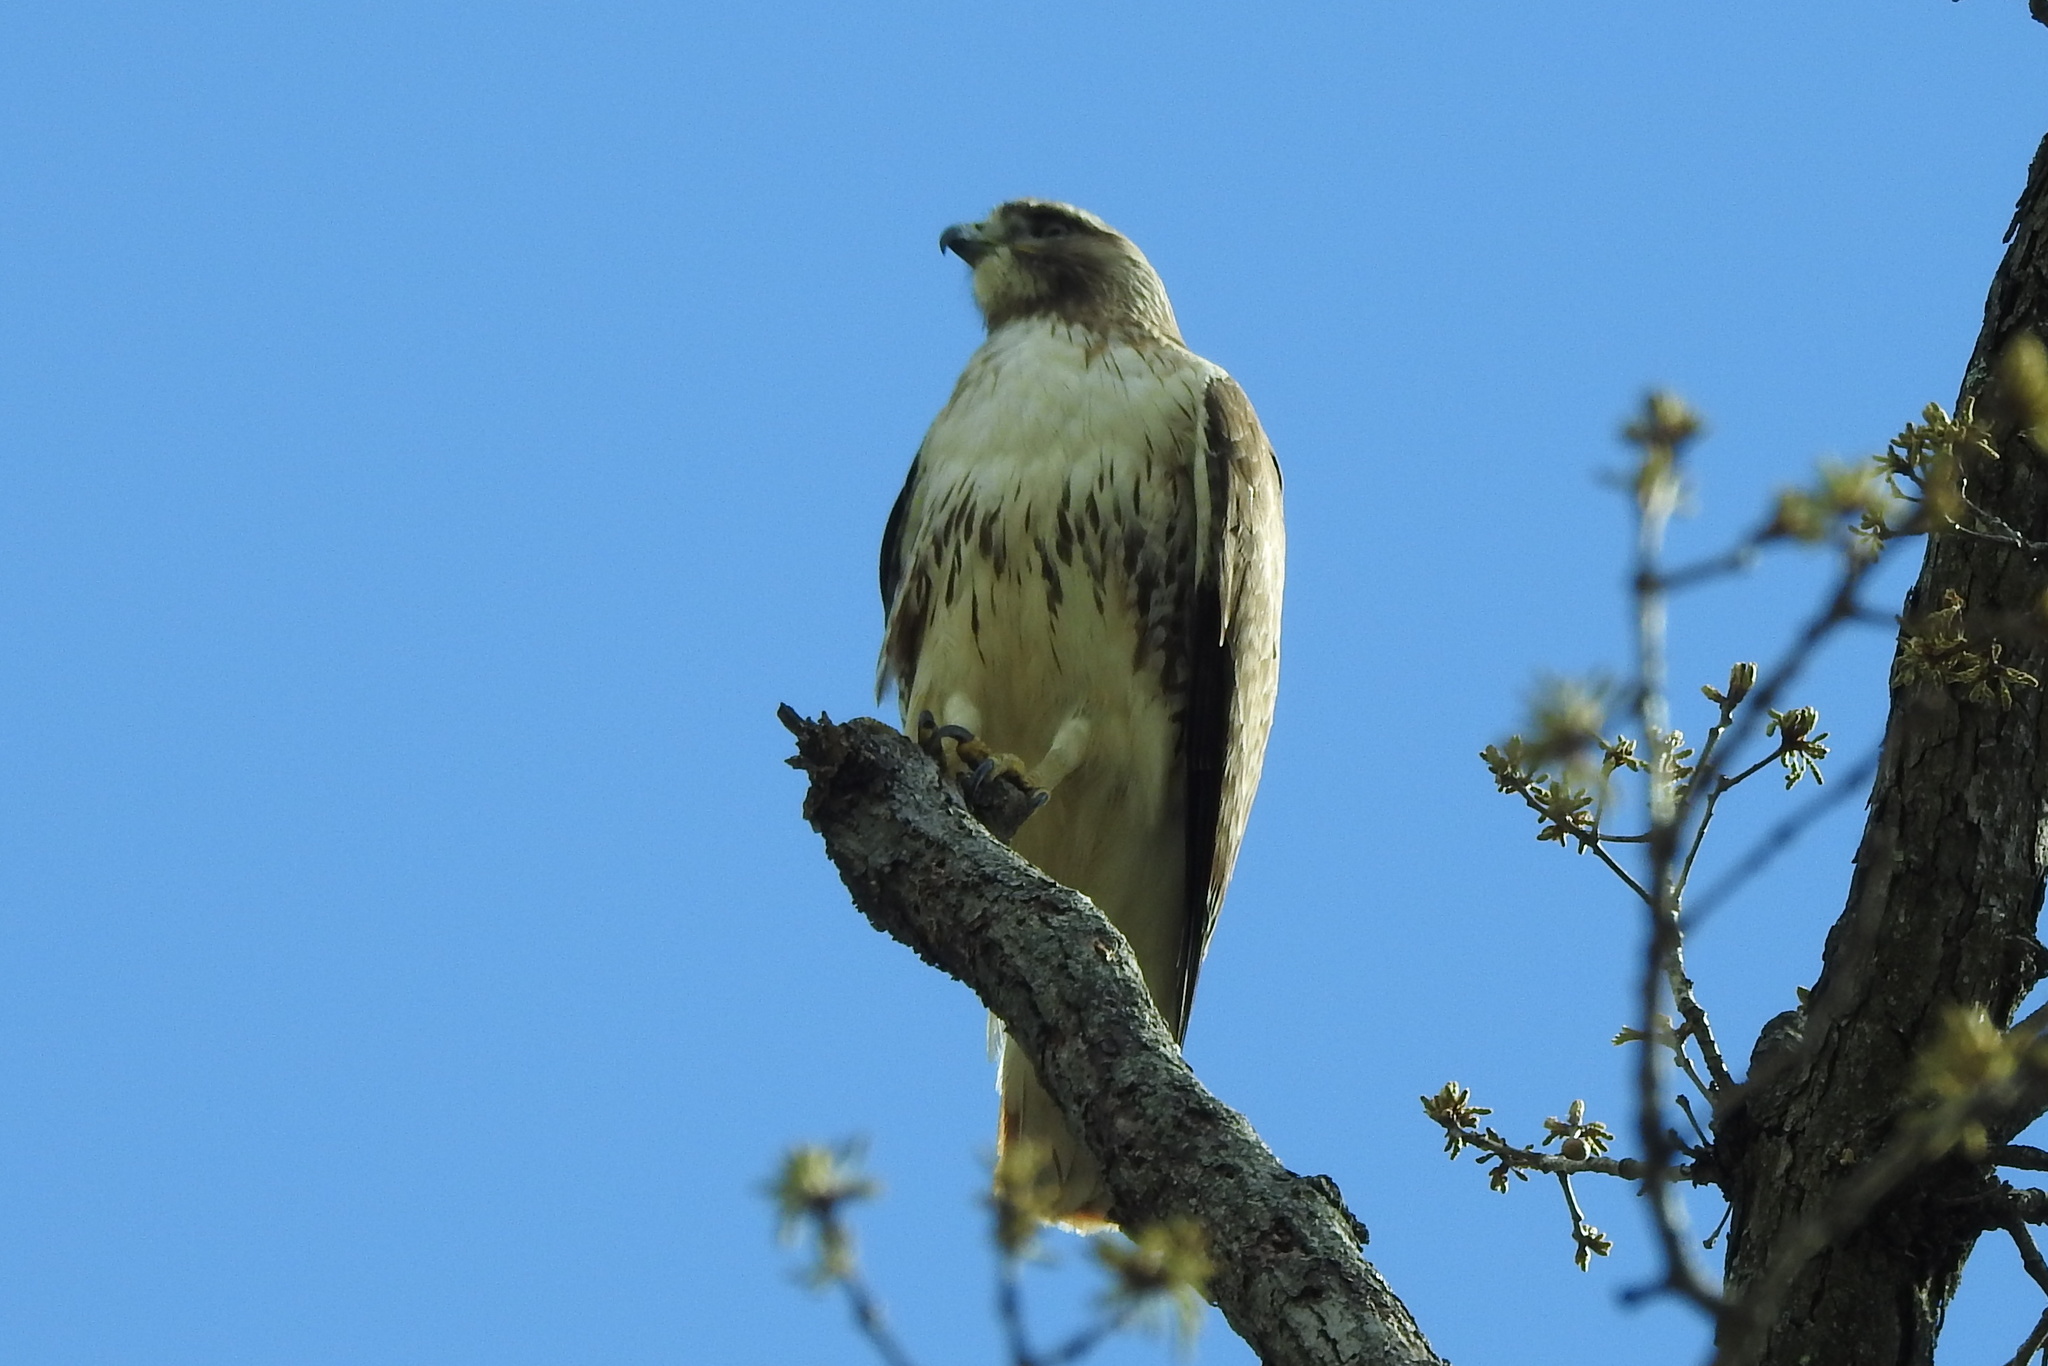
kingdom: Animalia
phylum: Chordata
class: Aves
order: Accipitriformes
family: Accipitridae
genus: Buteo
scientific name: Buteo jamaicensis
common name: Red-tailed hawk
